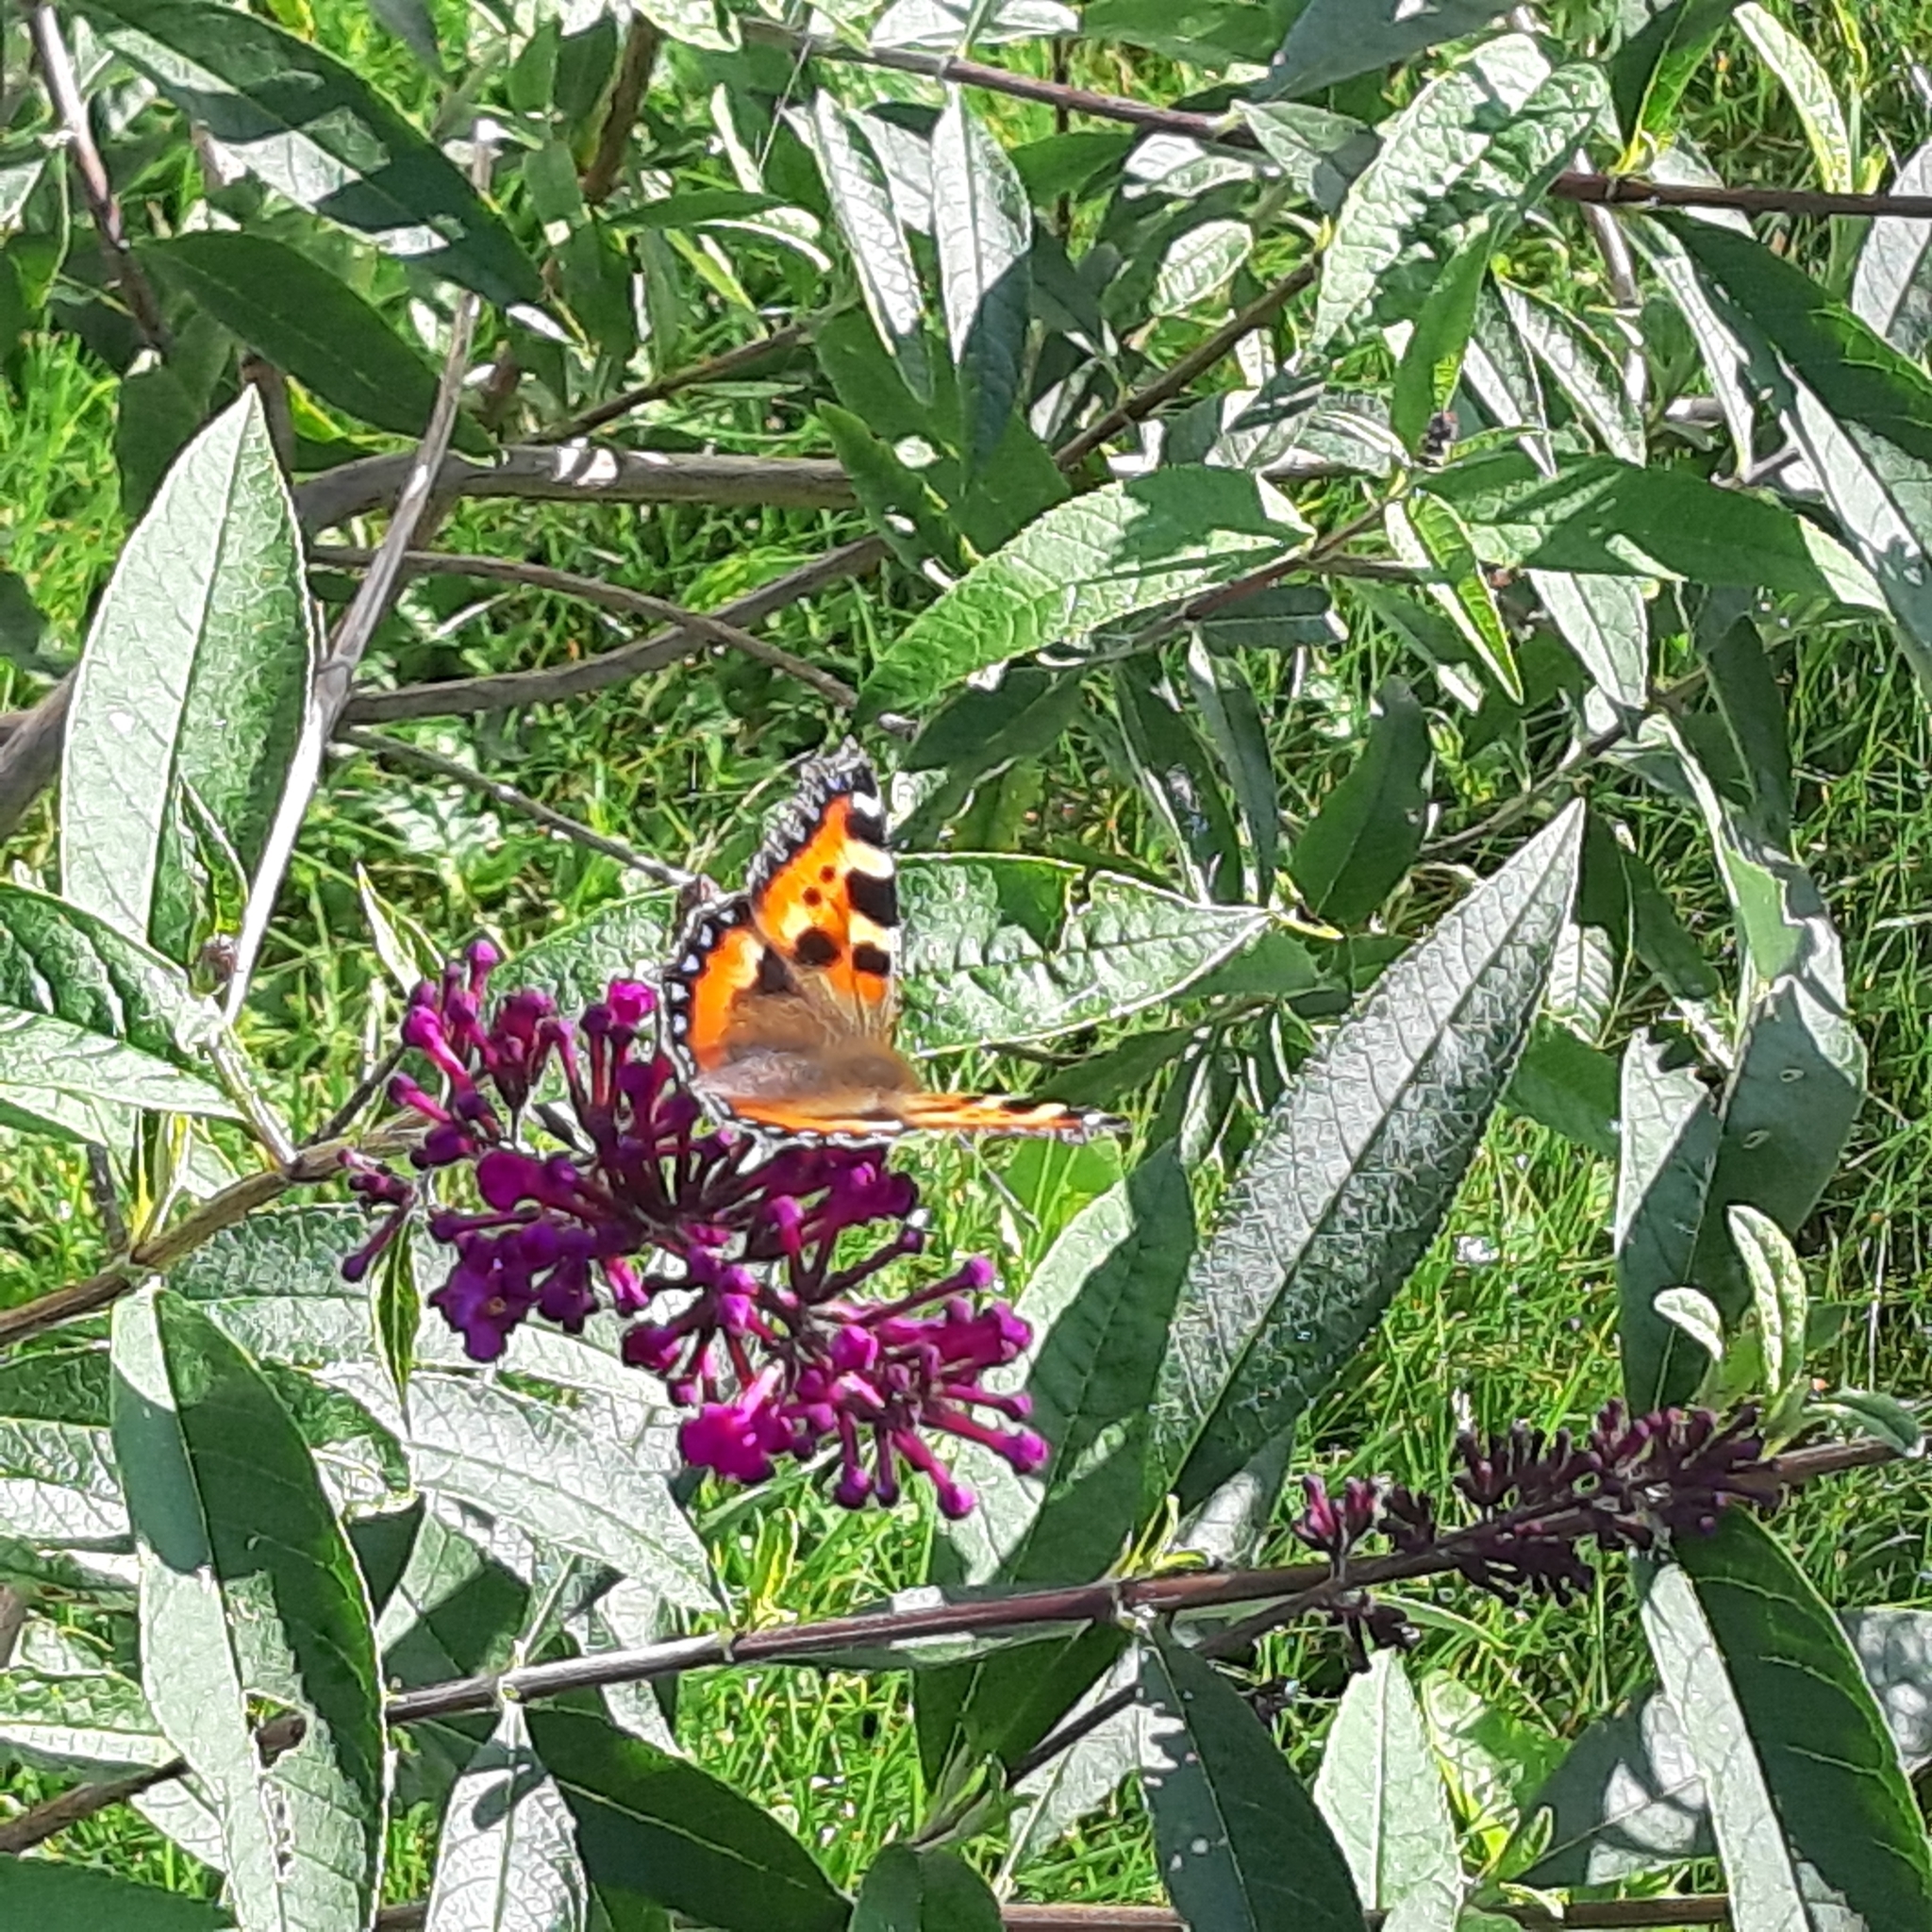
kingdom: Animalia
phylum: Arthropoda
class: Insecta
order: Lepidoptera
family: Nymphalidae
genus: Aglais
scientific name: Aglais urticae
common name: Small tortoiseshell
